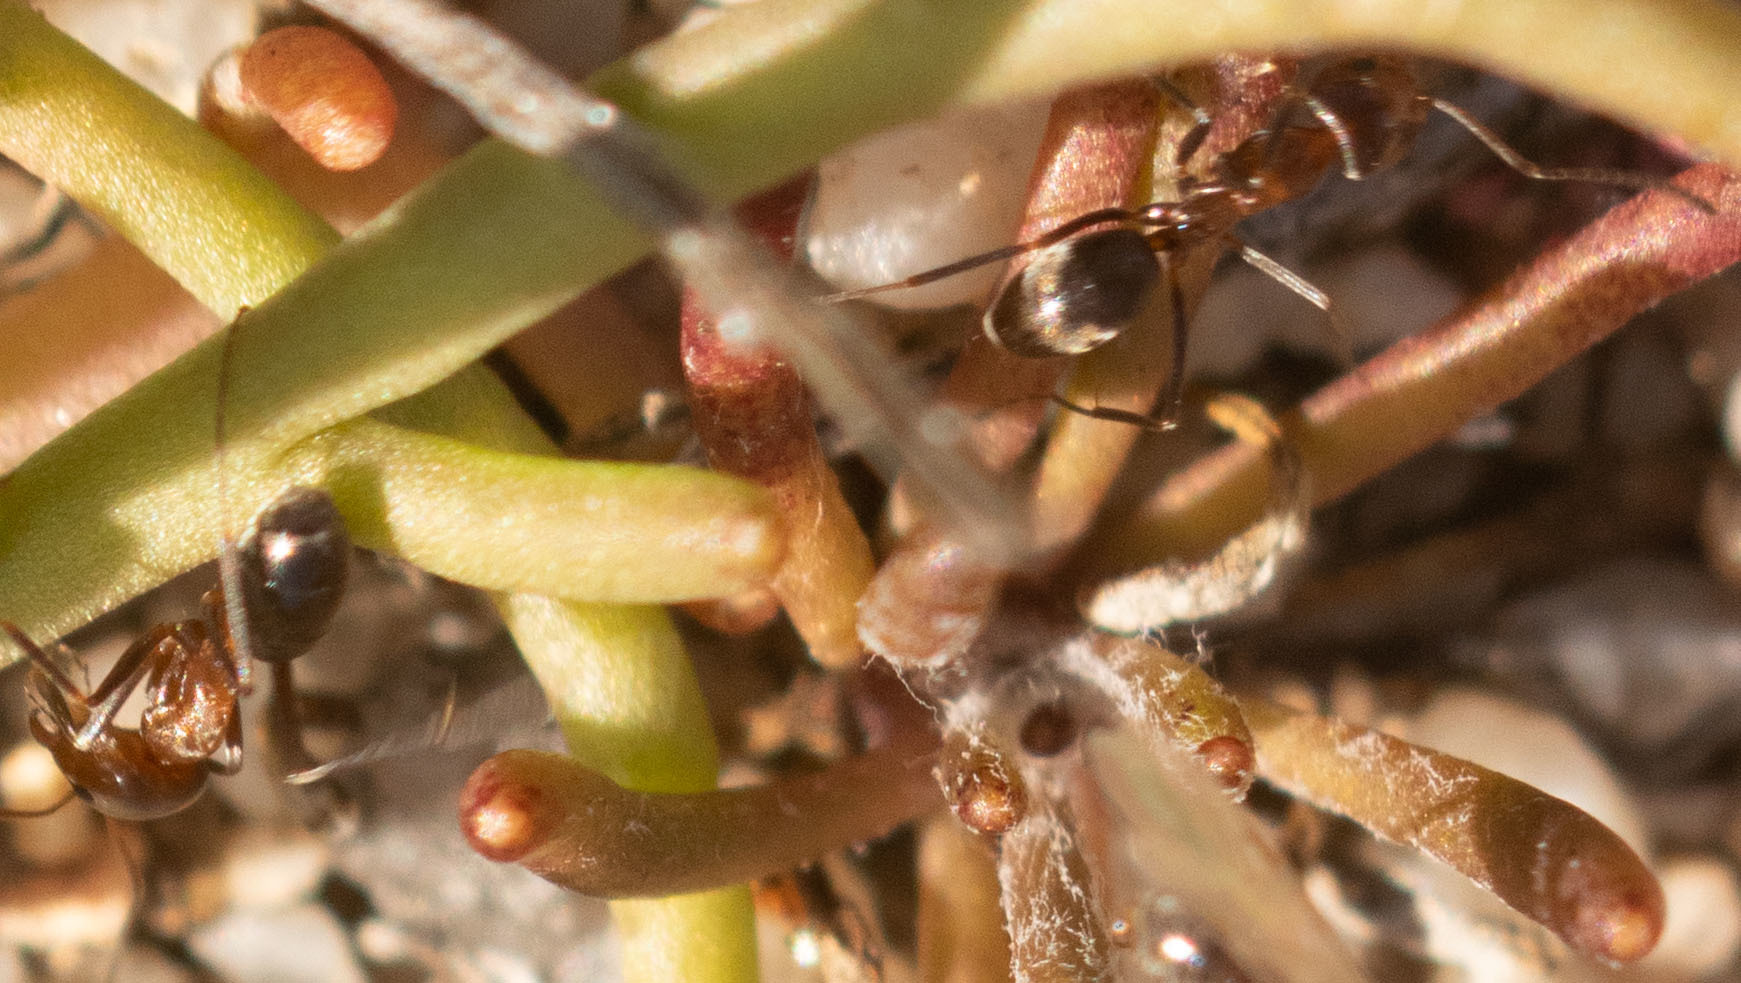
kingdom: Animalia
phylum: Arthropoda
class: Insecta
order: Hymenoptera
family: Formicidae
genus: Dorymyrmex
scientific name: Dorymyrmex bicolor
